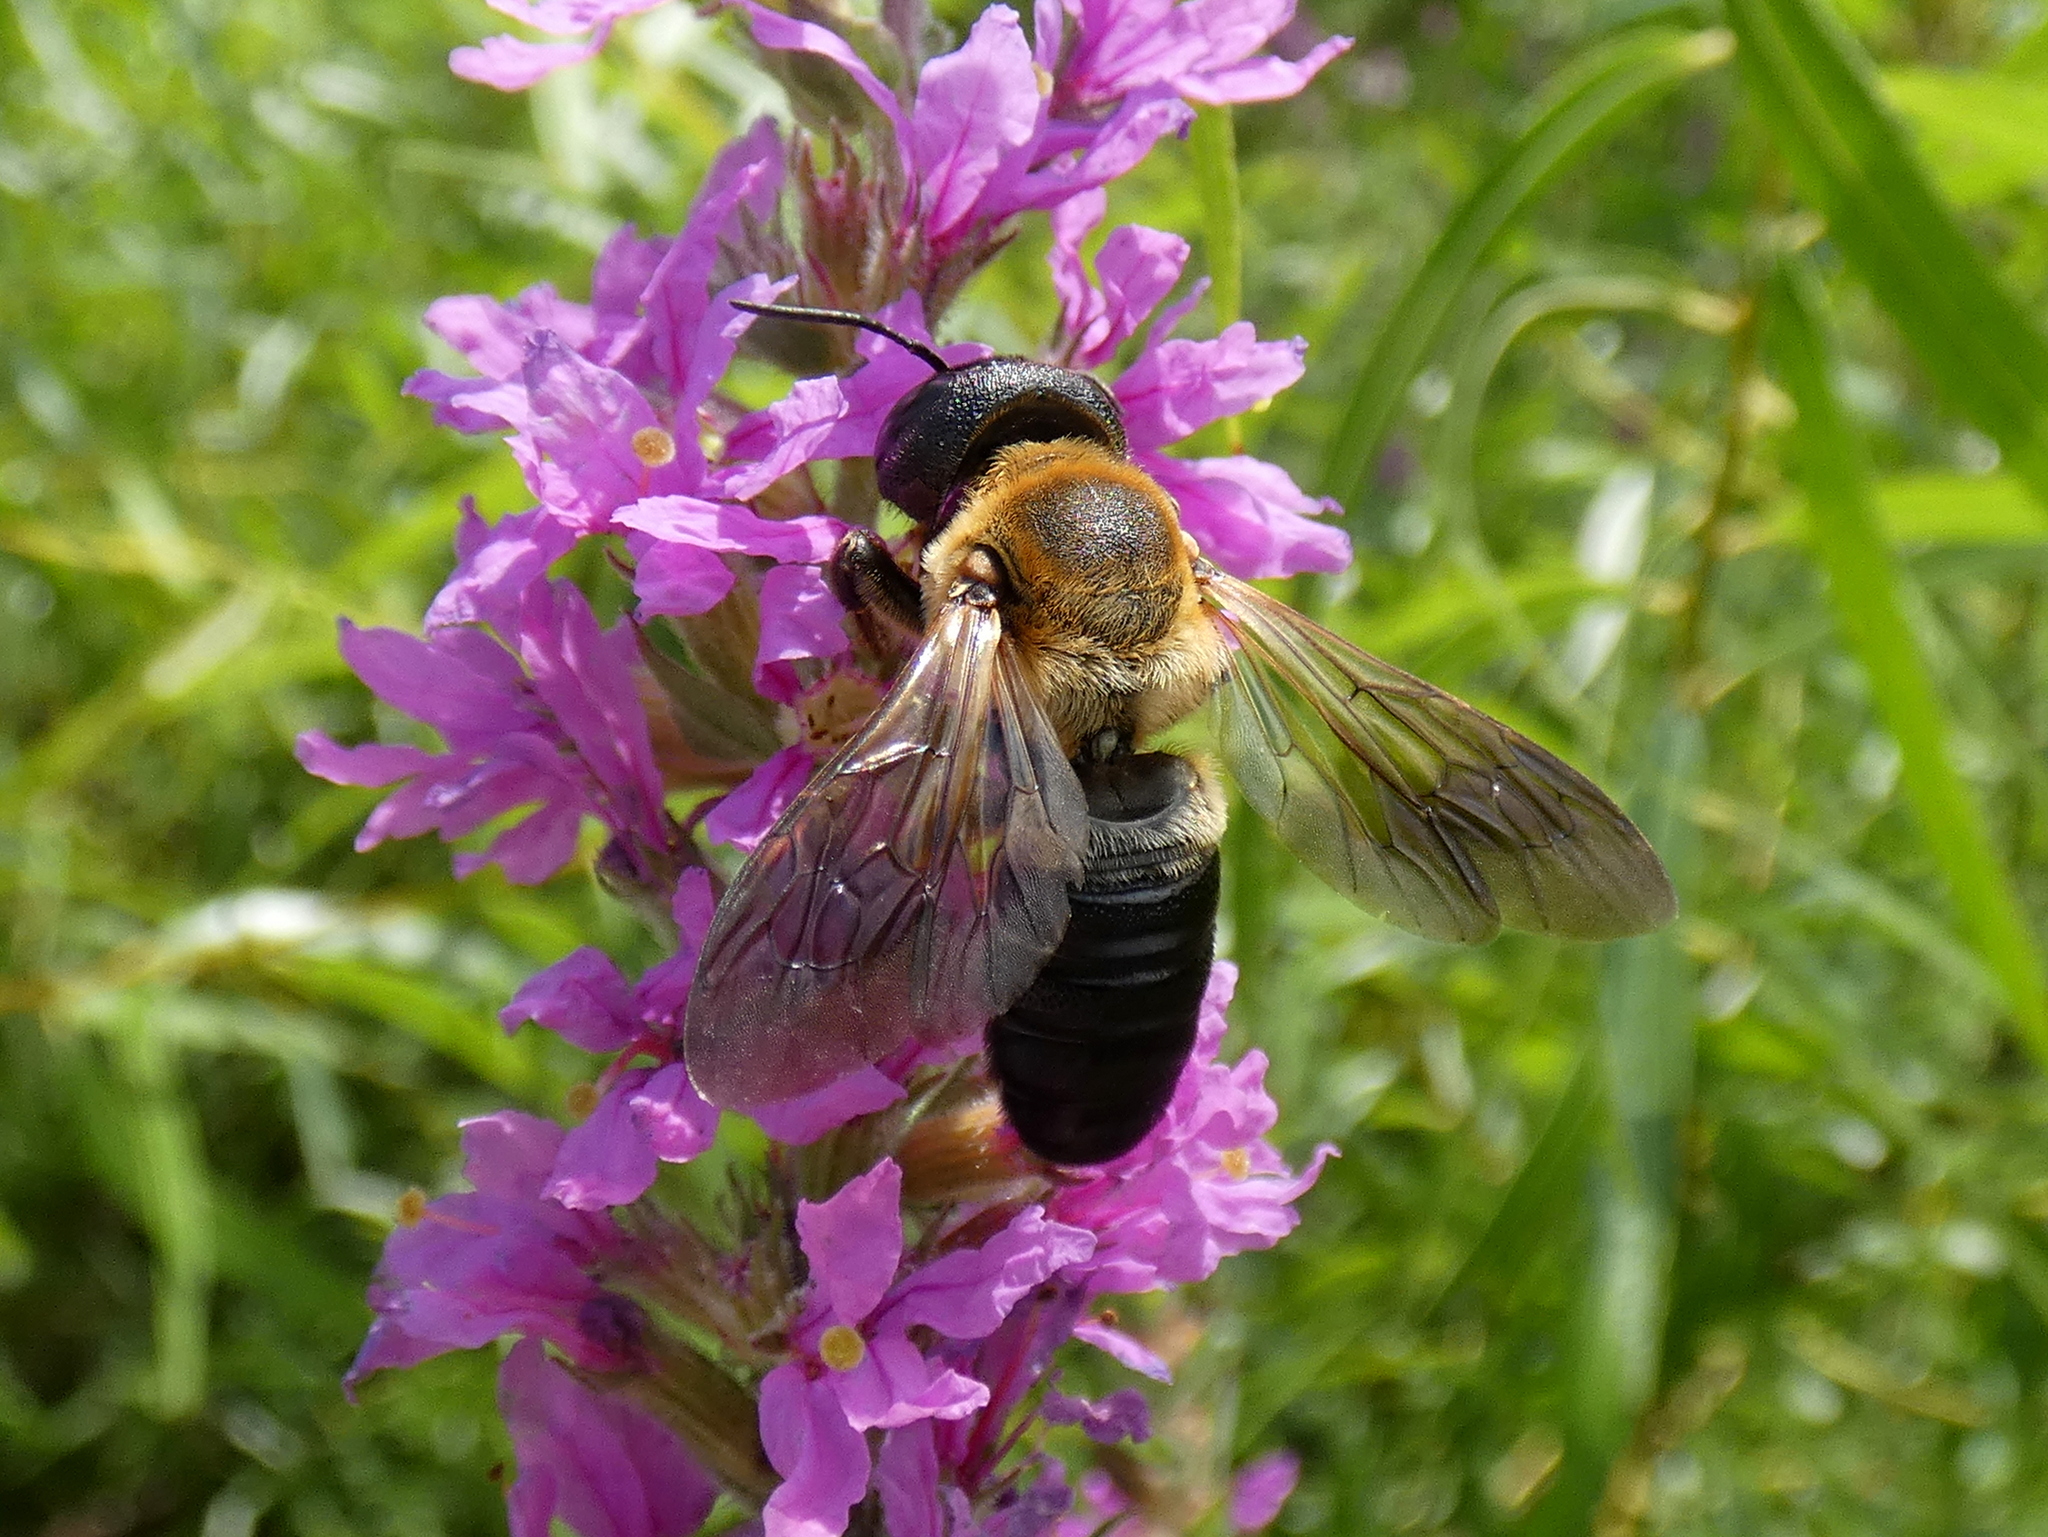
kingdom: Animalia
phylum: Arthropoda
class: Insecta
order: Hymenoptera
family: Megachilidae
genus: Megachile
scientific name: Megachile sculpturalis
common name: Sculptured resin bee
